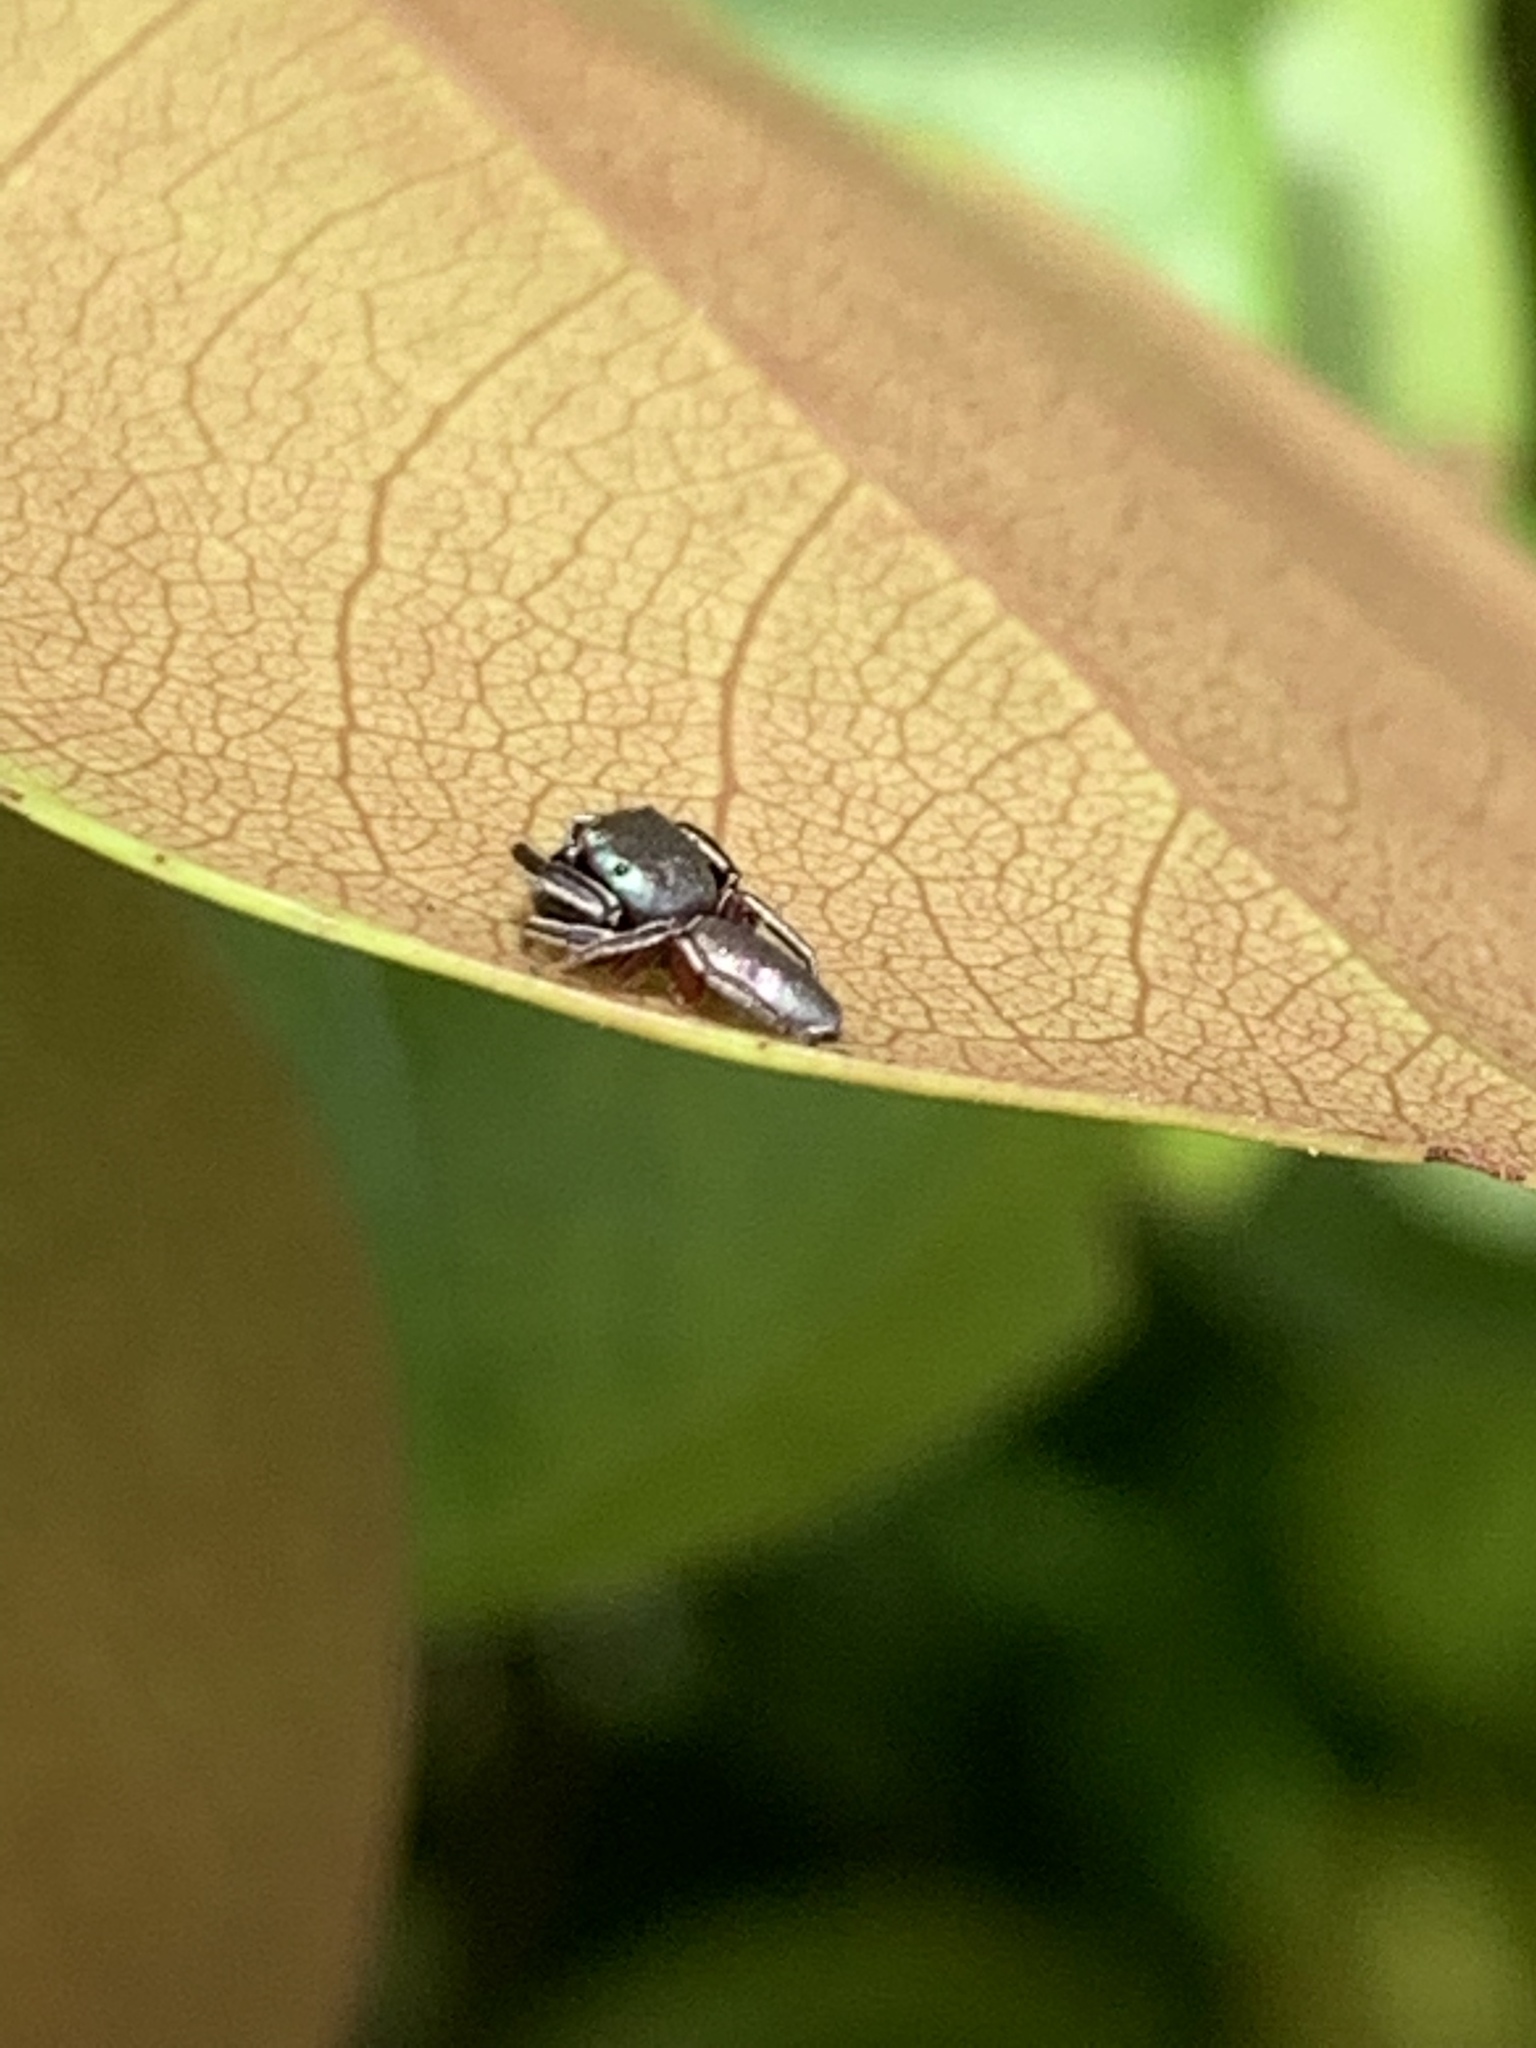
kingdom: Animalia
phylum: Arthropoda
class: Arachnida
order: Araneae
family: Salticidae
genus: Beata
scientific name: Beata wickhami
